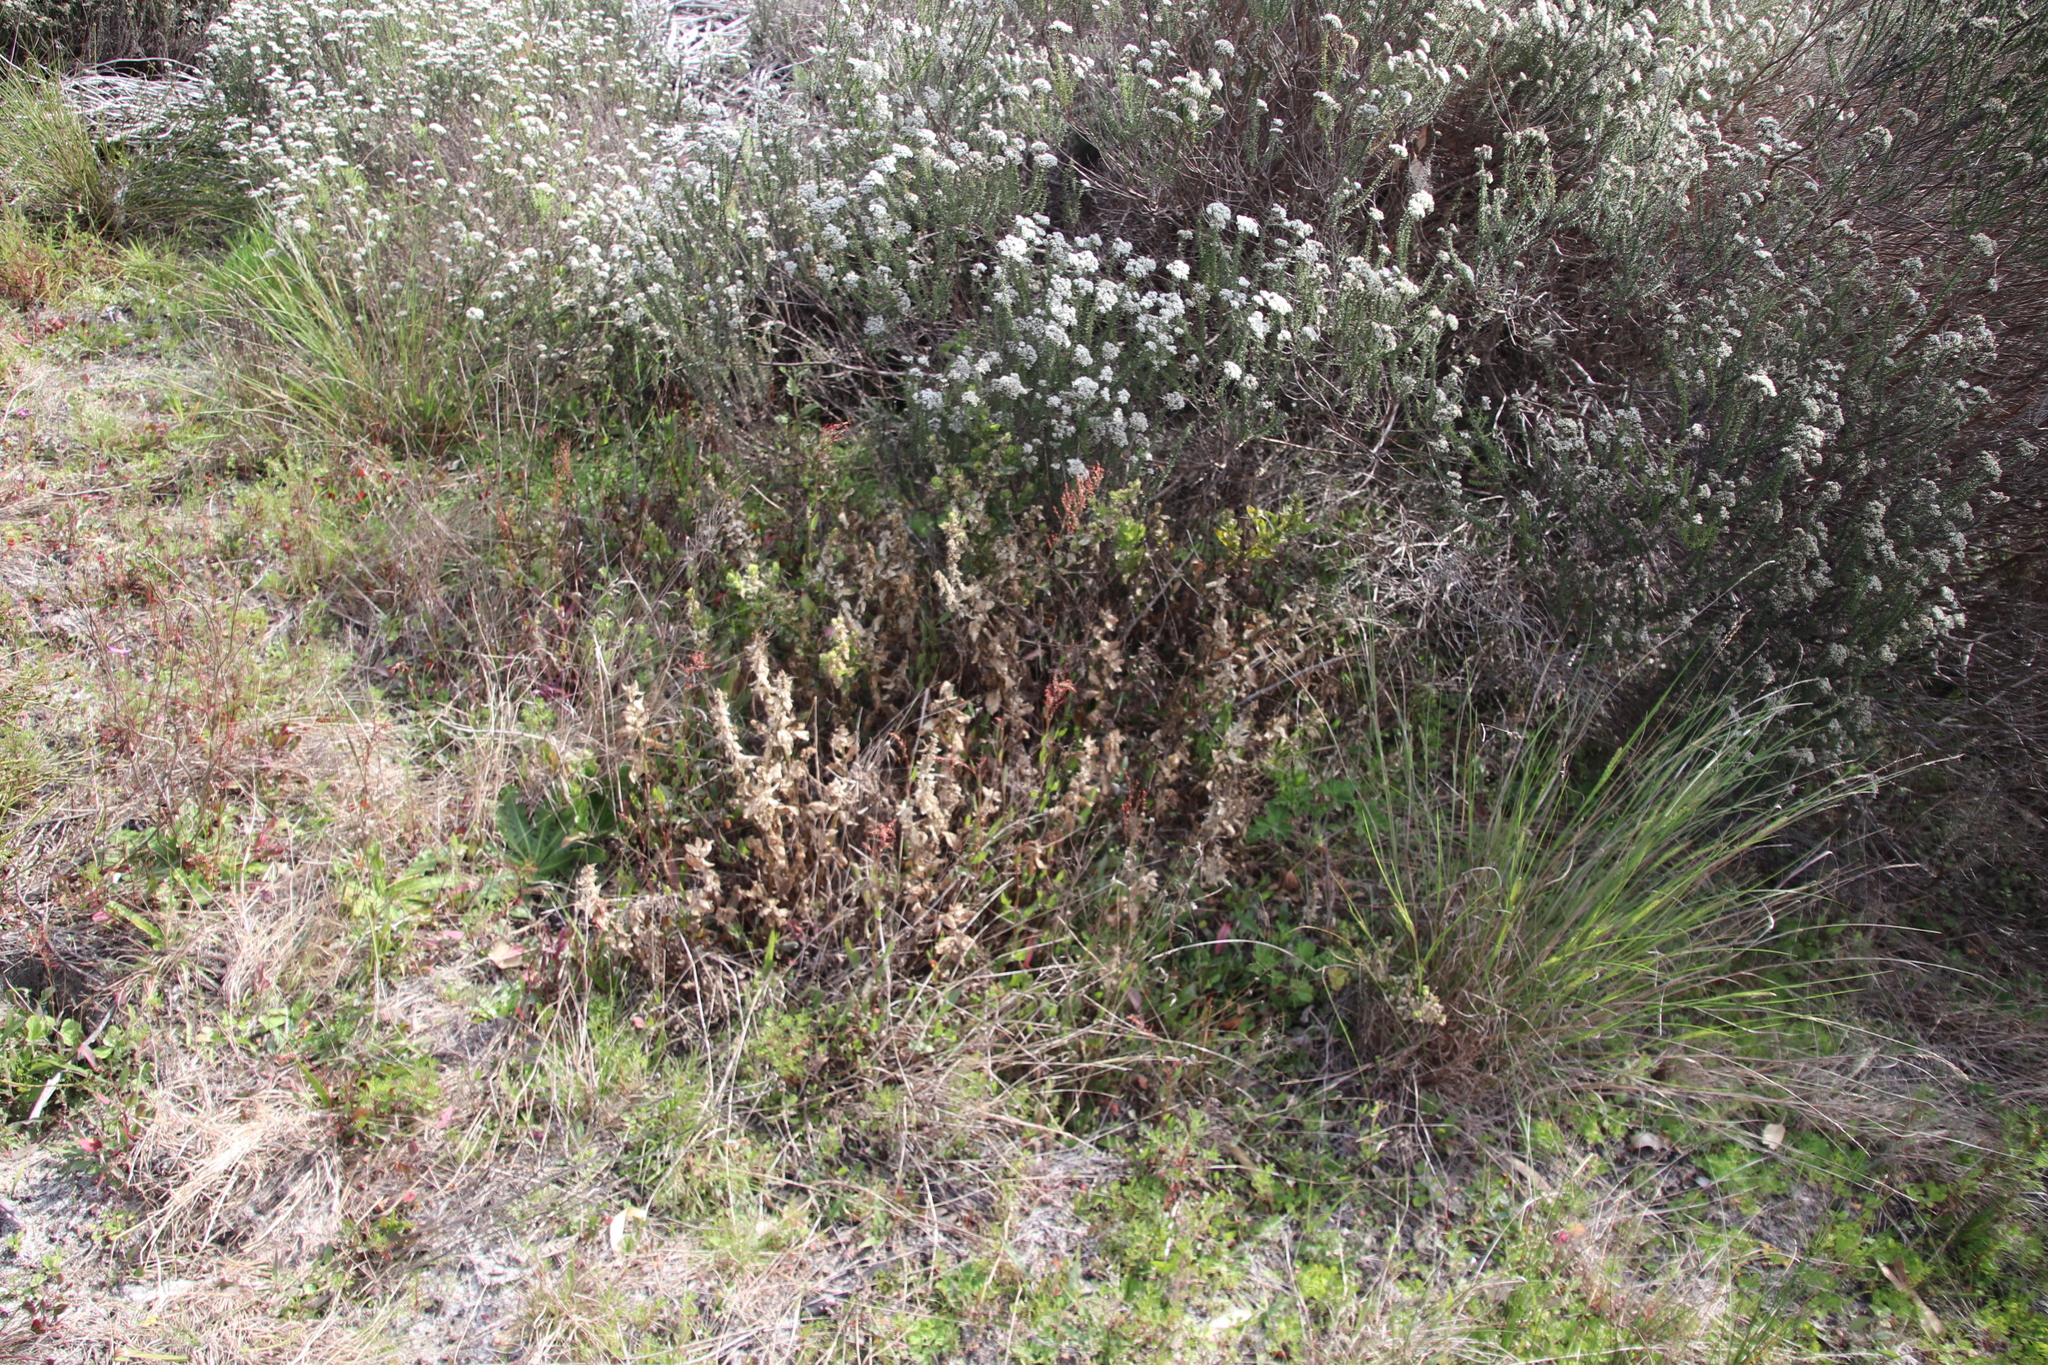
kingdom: Plantae
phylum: Tracheophyta
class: Magnoliopsida
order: Lamiales
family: Scrophulariaceae
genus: Oftia
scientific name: Oftia africana
